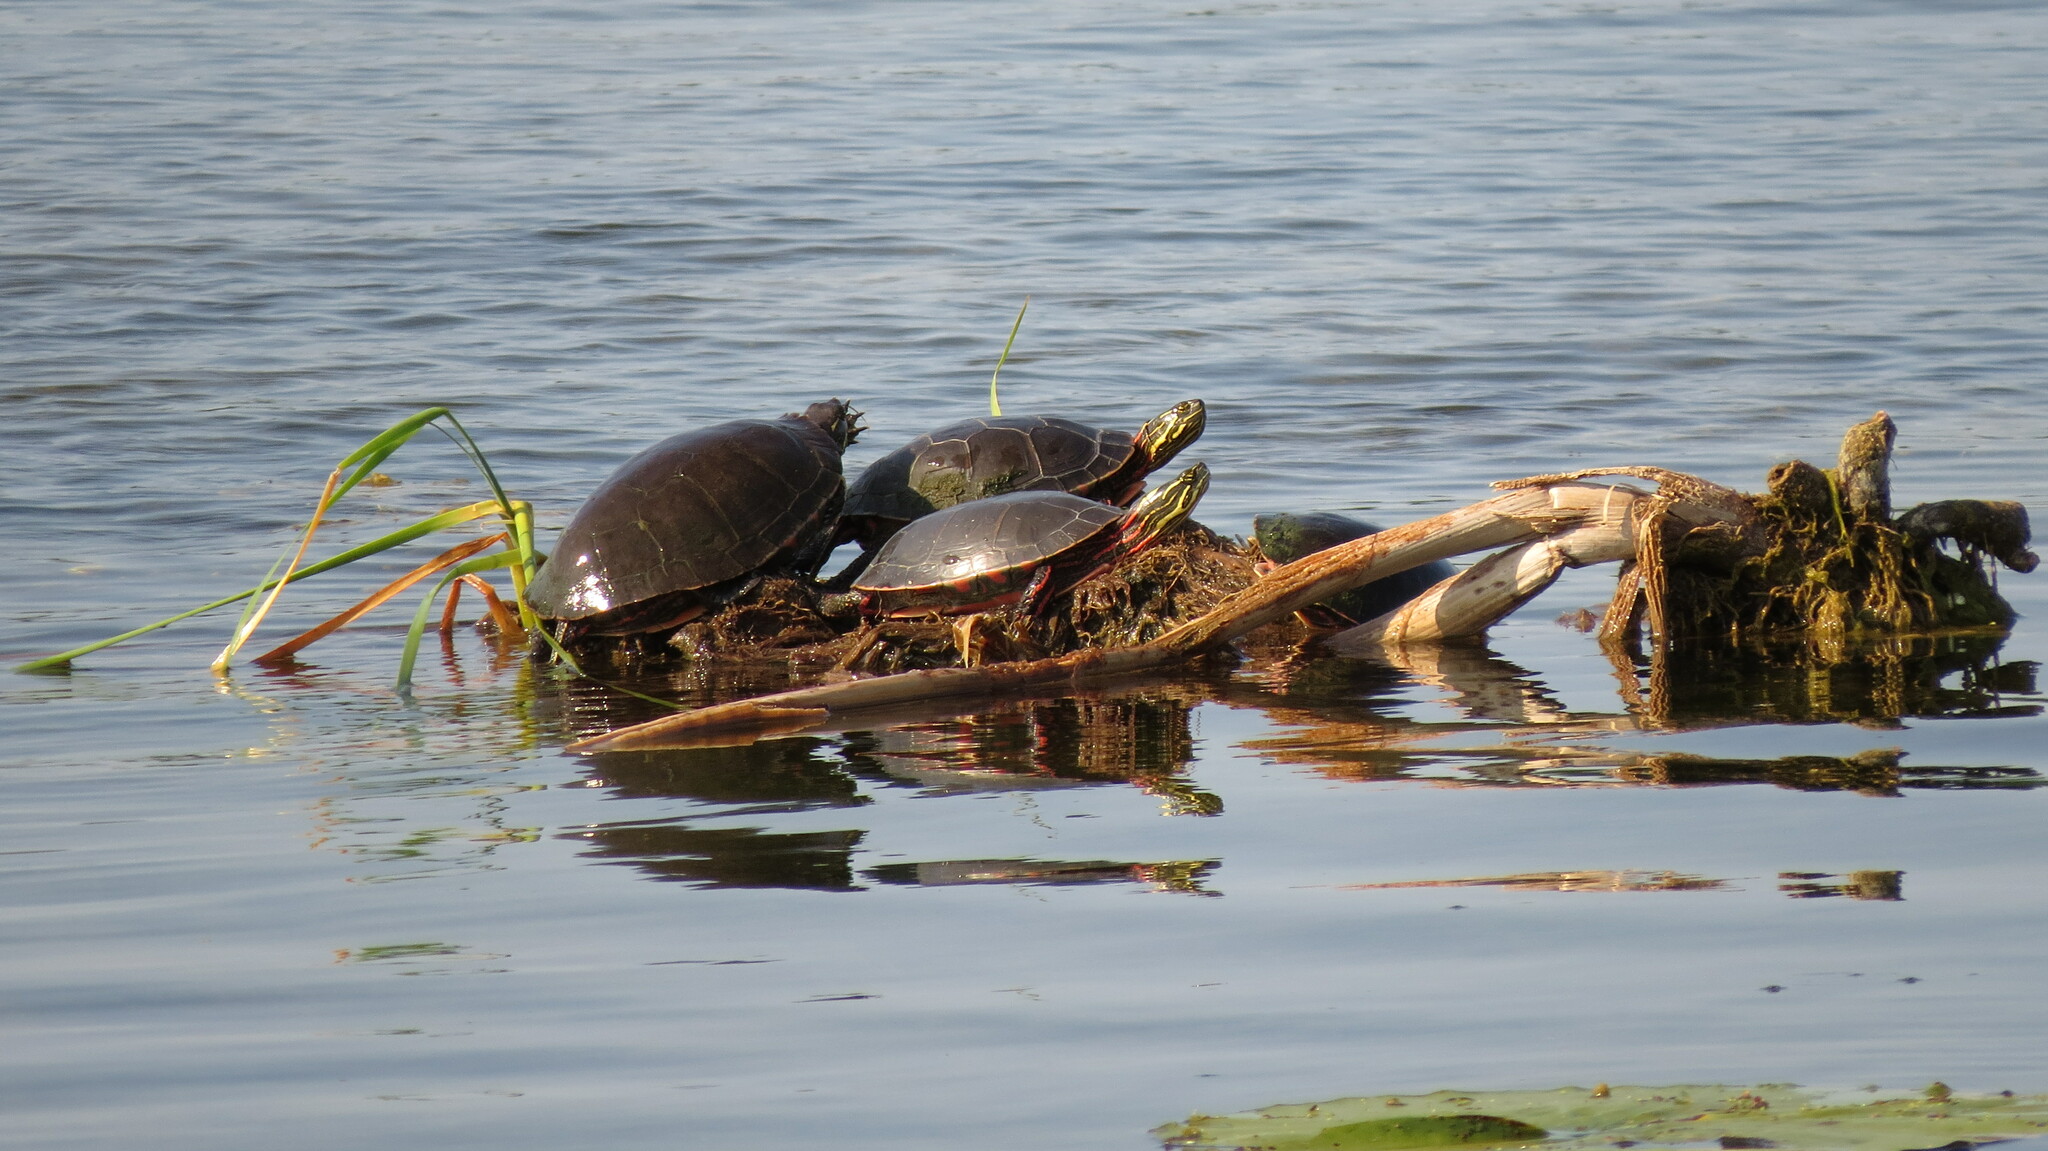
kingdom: Animalia
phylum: Chordata
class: Testudines
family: Emydidae
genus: Chrysemys
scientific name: Chrysemys picta
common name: Painted turtle
